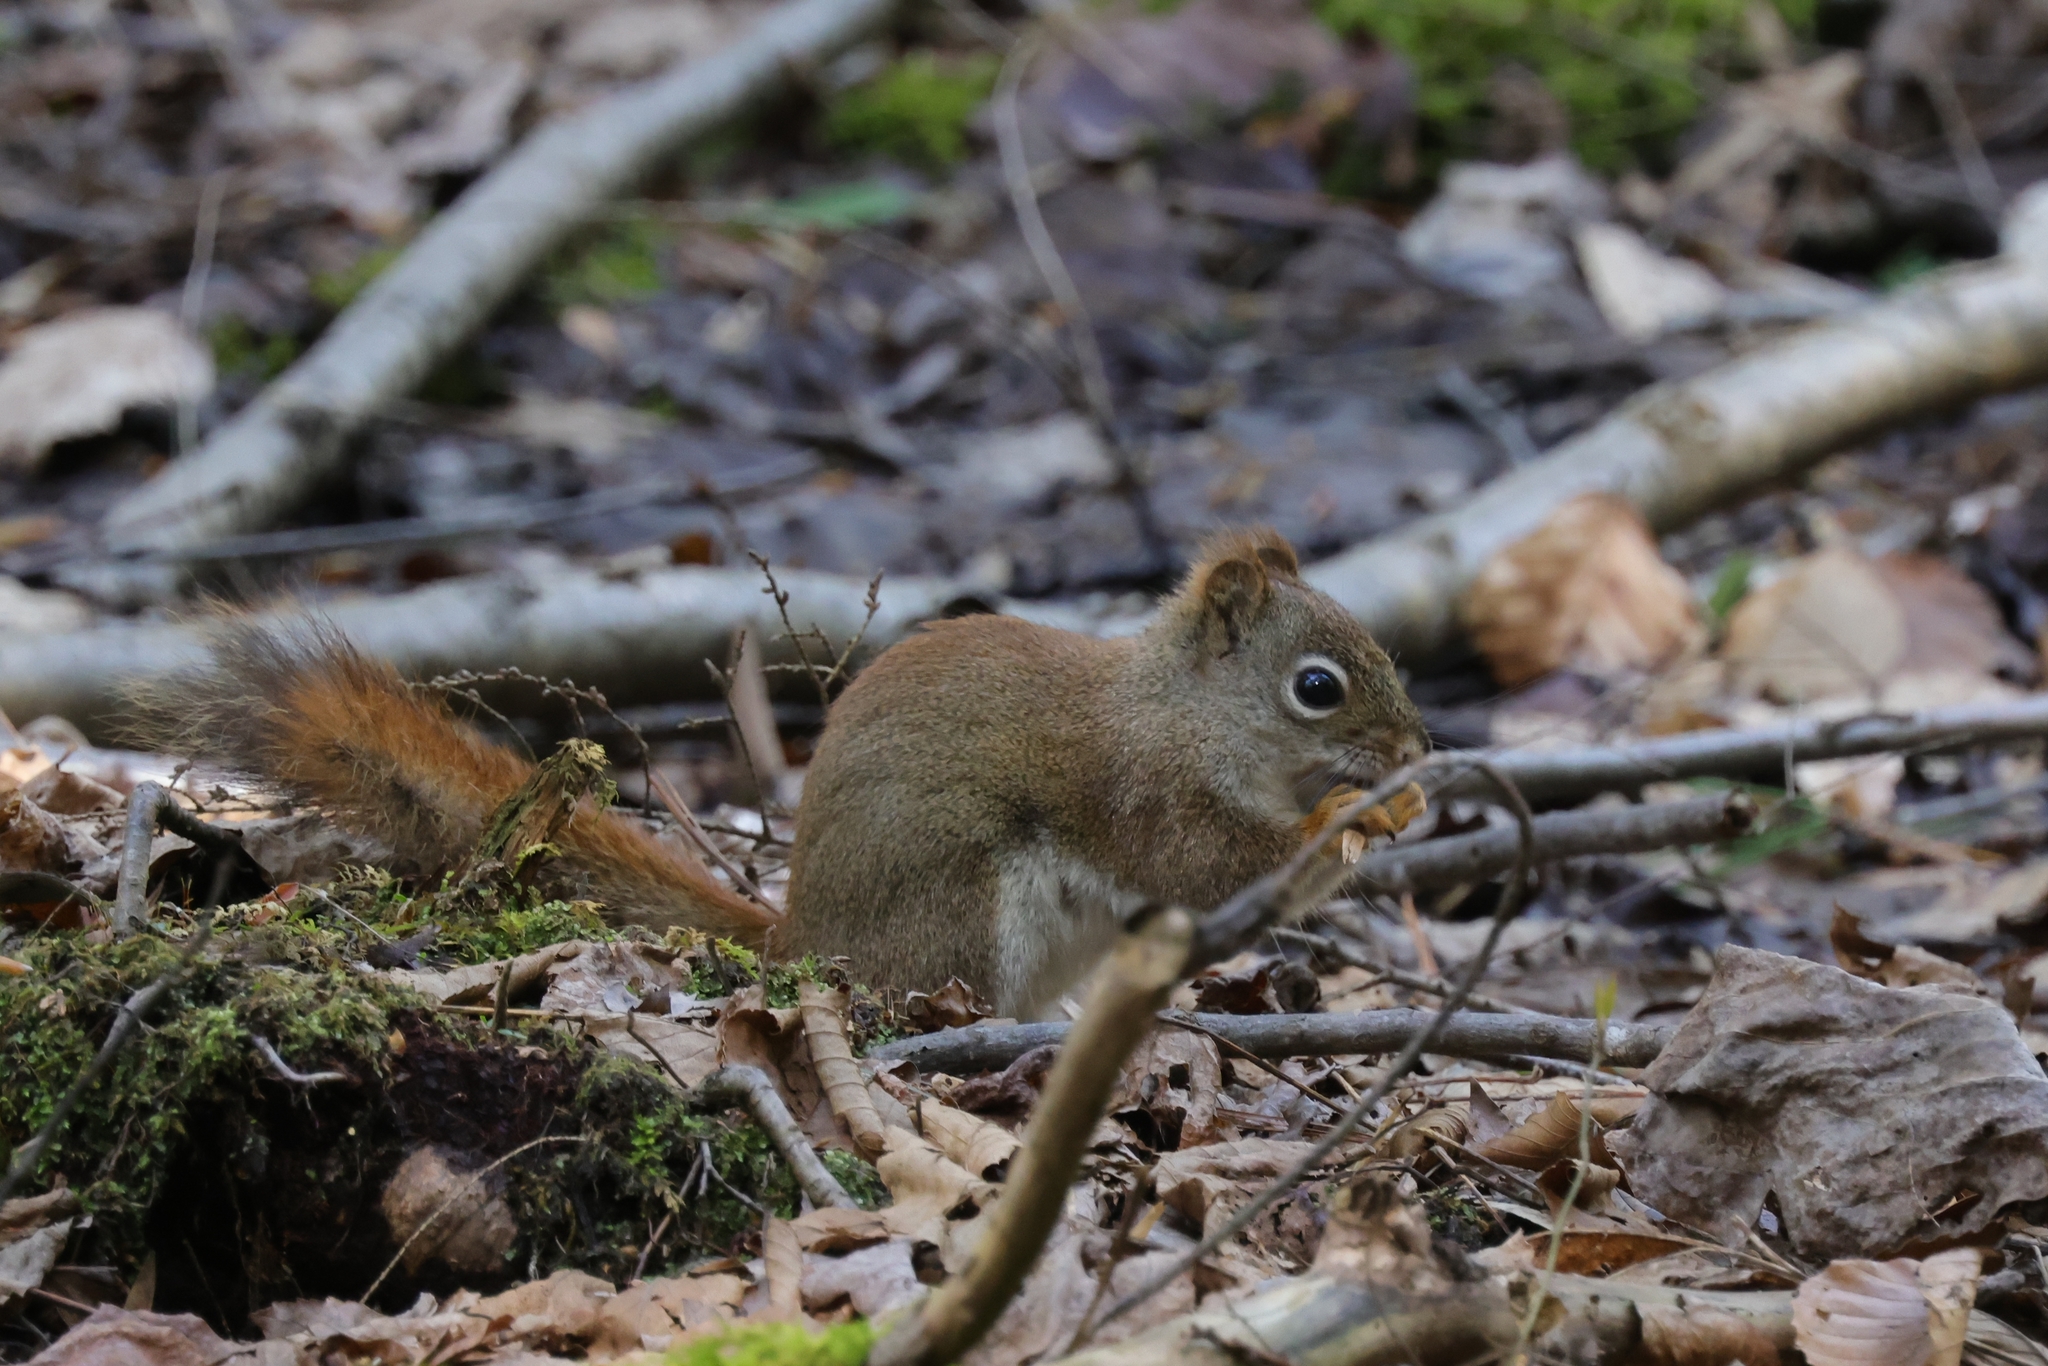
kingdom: Animalia
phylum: Chordata
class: Mammalia
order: Rodentia
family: Sciuridae
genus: Tamiasciurus
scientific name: Tamiasciurus hudsonicus
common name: Red squirrel
